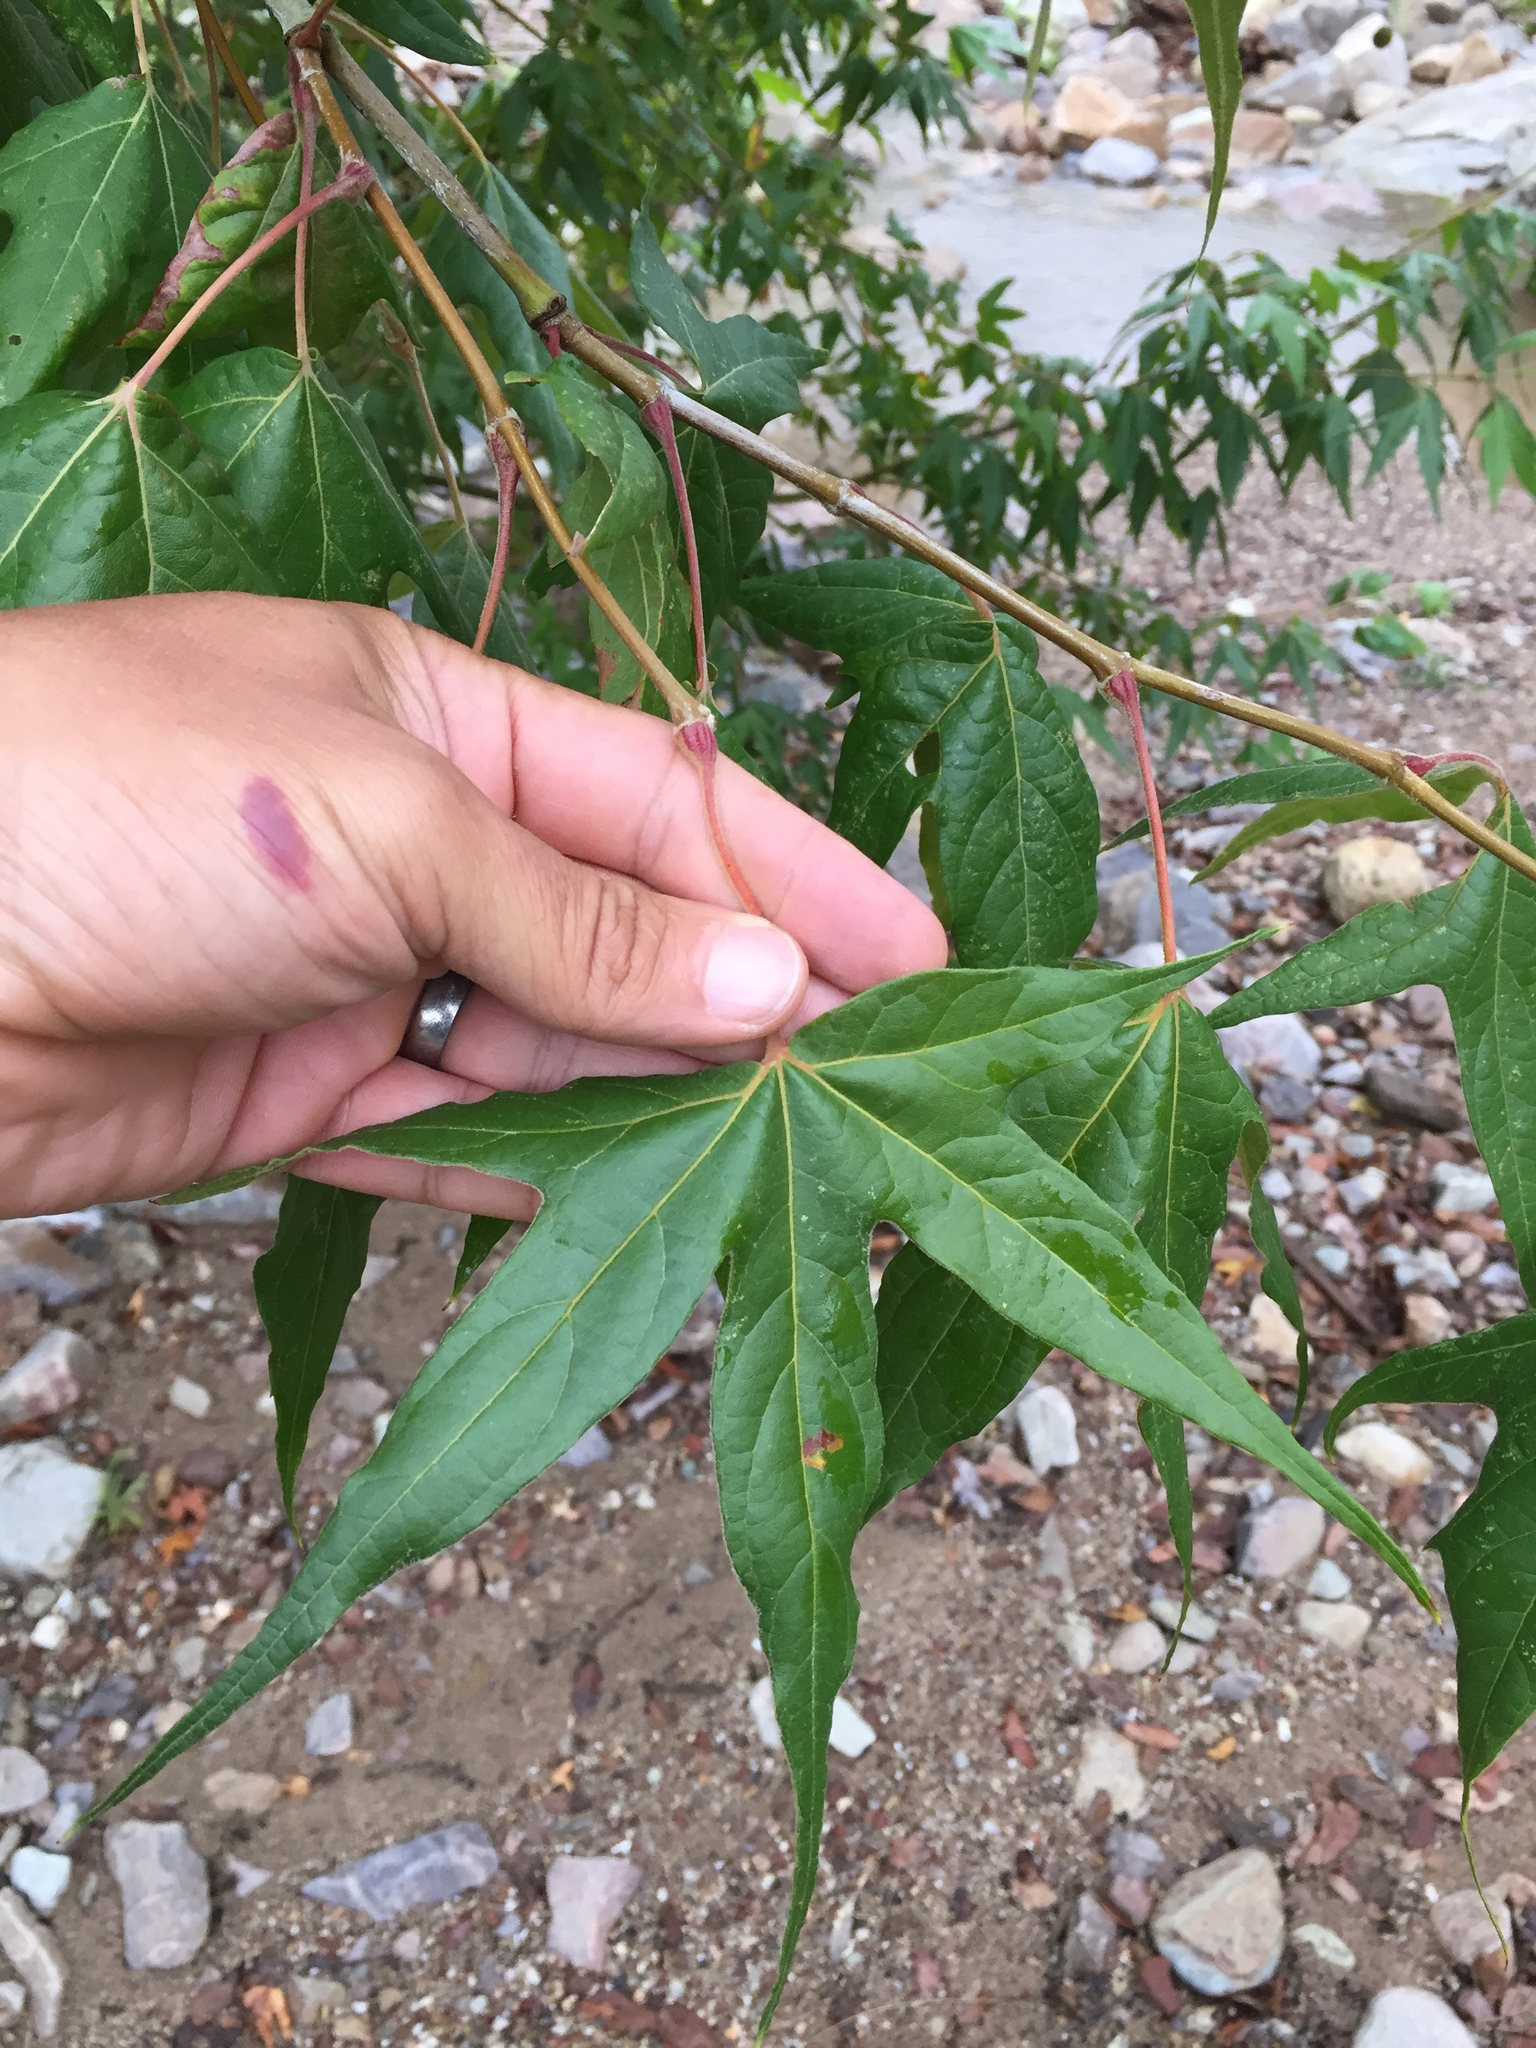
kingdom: Plantae
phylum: Tracheophyta
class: Magnoliopsida
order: Proteales
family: Platanaceae
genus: Platanus
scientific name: Platanus wrightii
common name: Arizona sycamore
